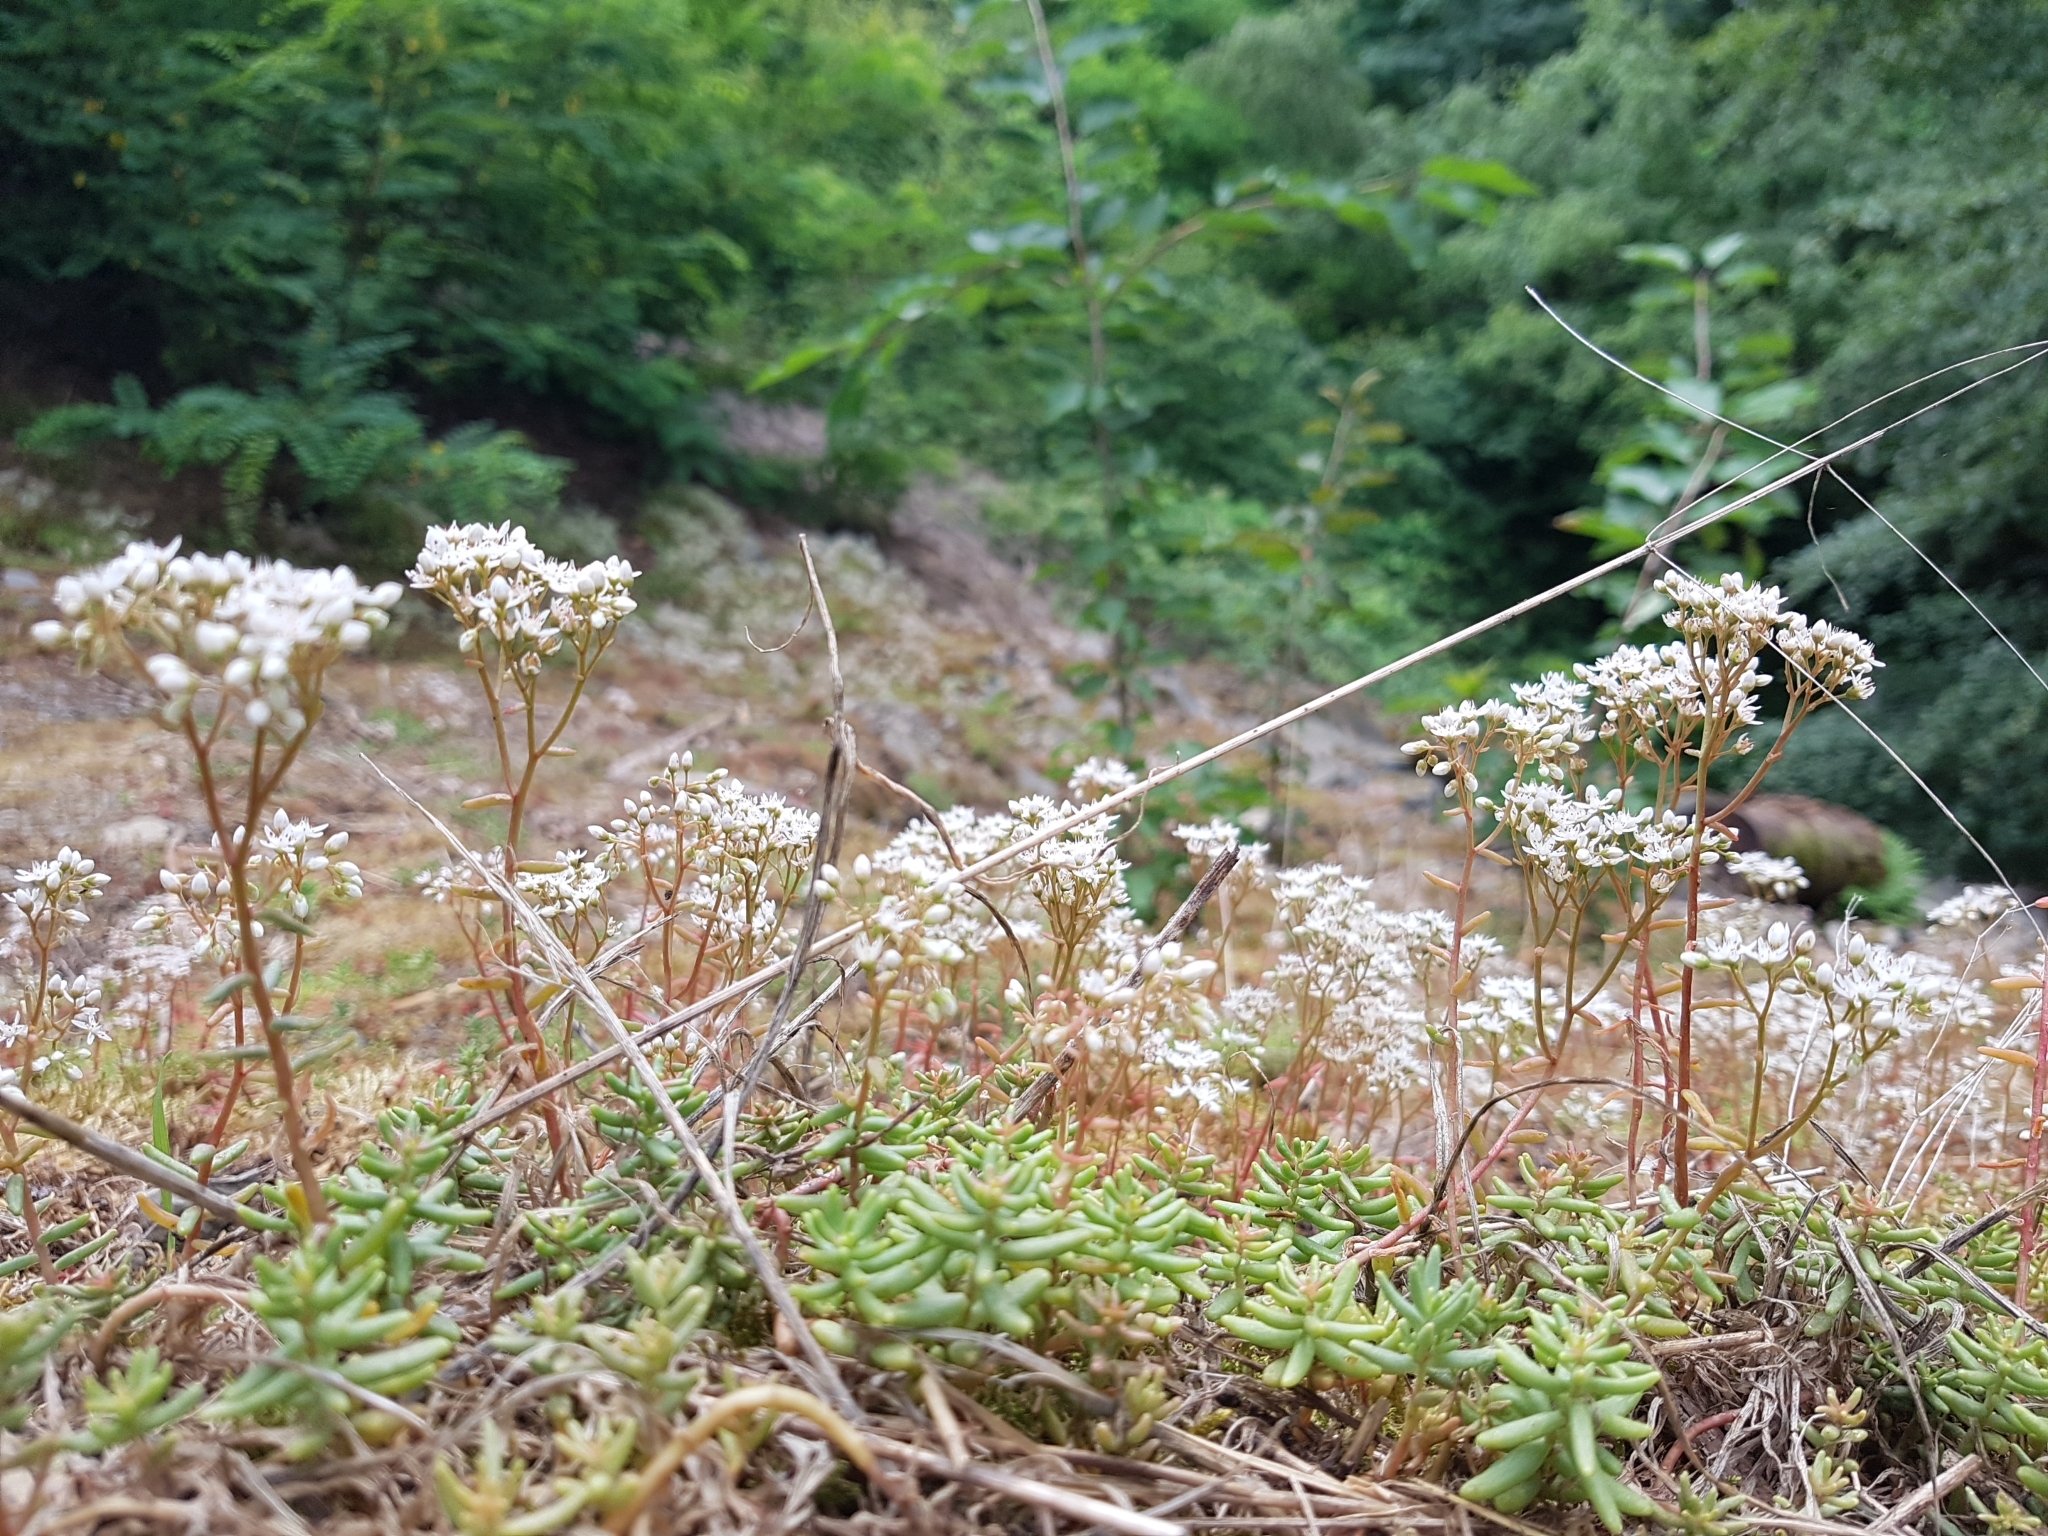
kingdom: Plantae
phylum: Tracheophyta
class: Magnoliopsida
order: Saxifragales
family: Crassulaceae
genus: Sedum
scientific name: Sedum album
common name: White stonecrop
